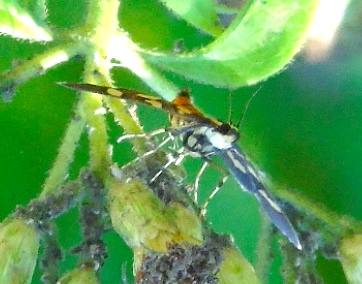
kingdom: Animalia
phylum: Arthropoda
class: Insecta
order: Lepidoptera
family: Crambidae
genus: Syngamia
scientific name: Syngamia florella
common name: Orange-spotted flower moth
